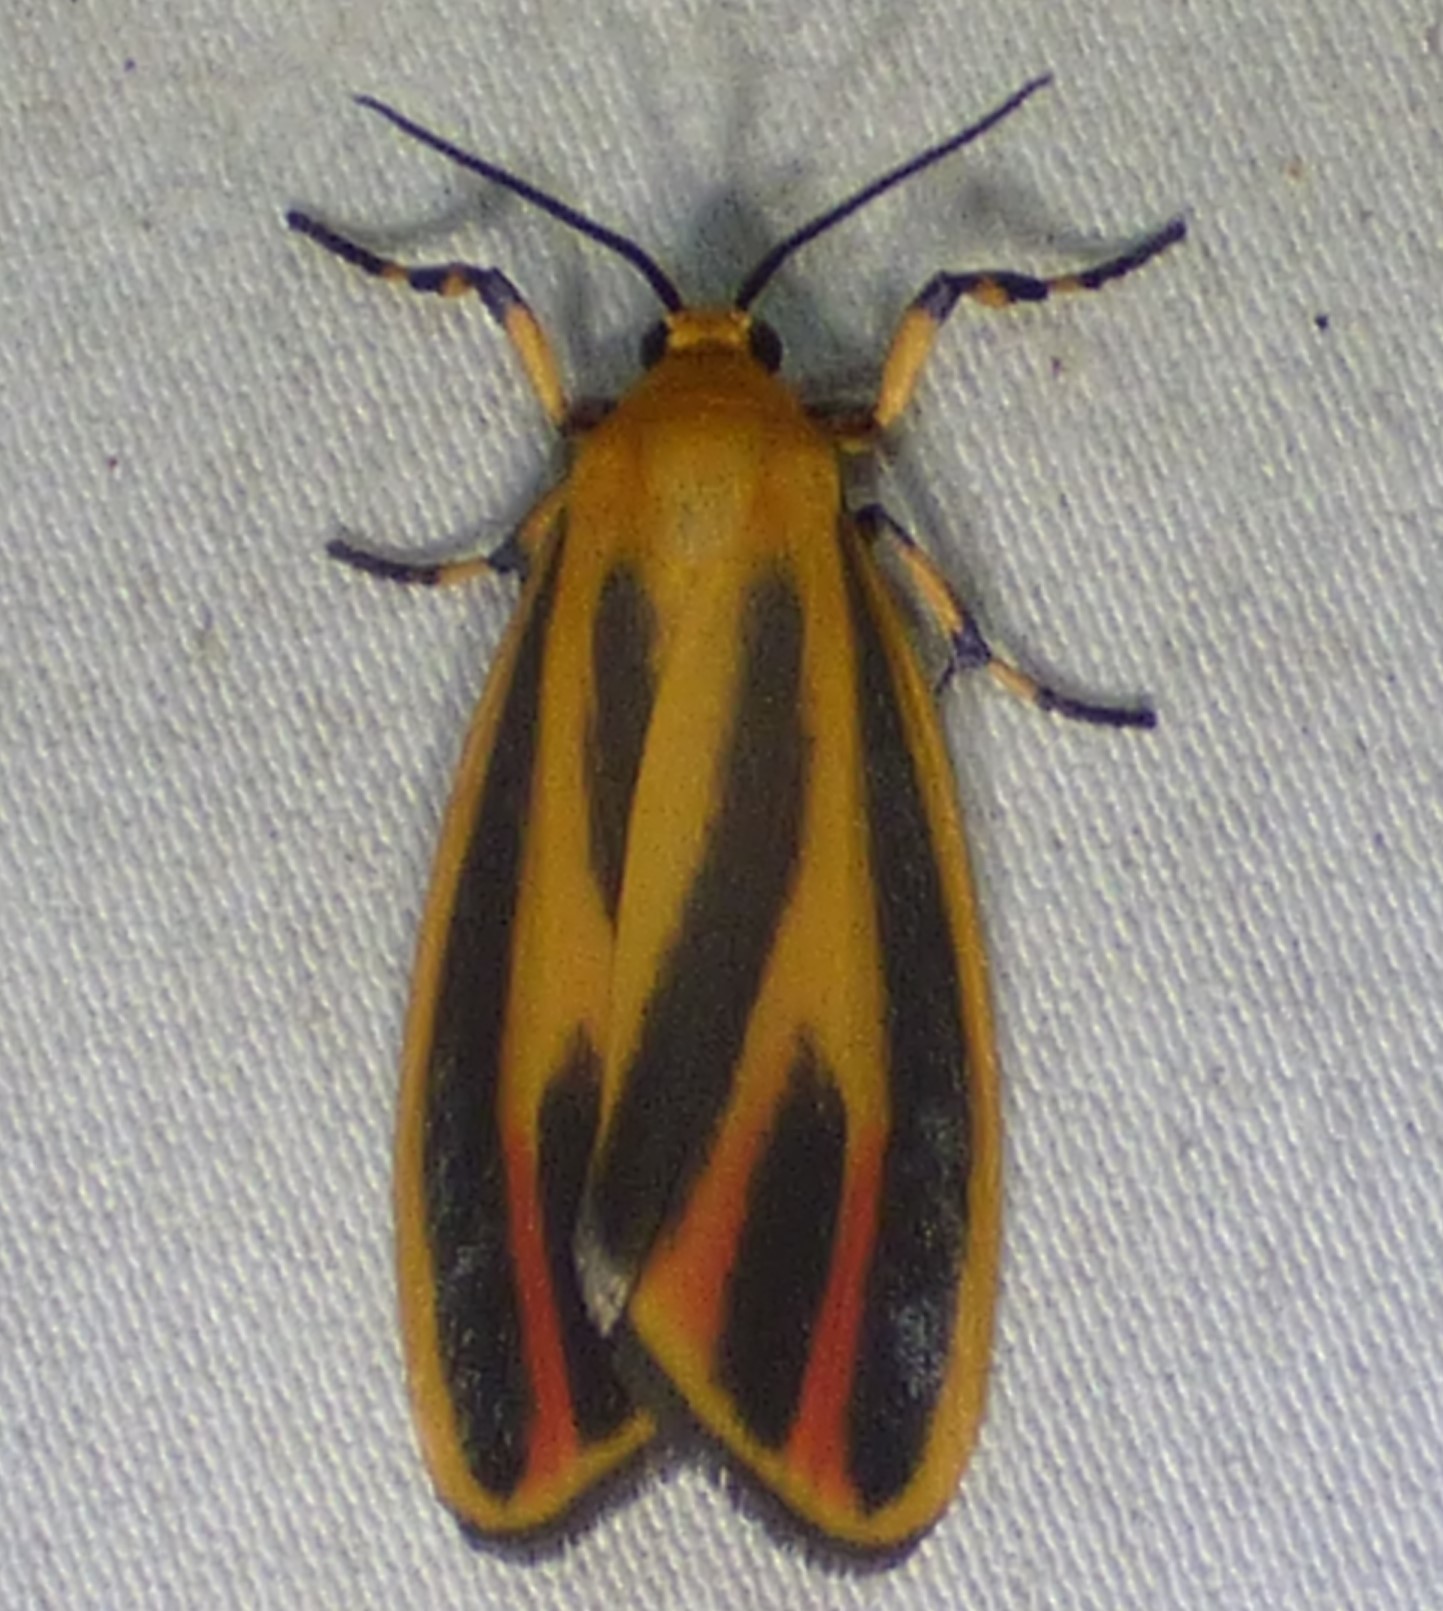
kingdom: Animalia
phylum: Arthropoda
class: Insecta
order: Lepidoptera
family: Erebidae
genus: Hypoprepia
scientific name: Hypoprepia fucosa
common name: Painted lichen moth
